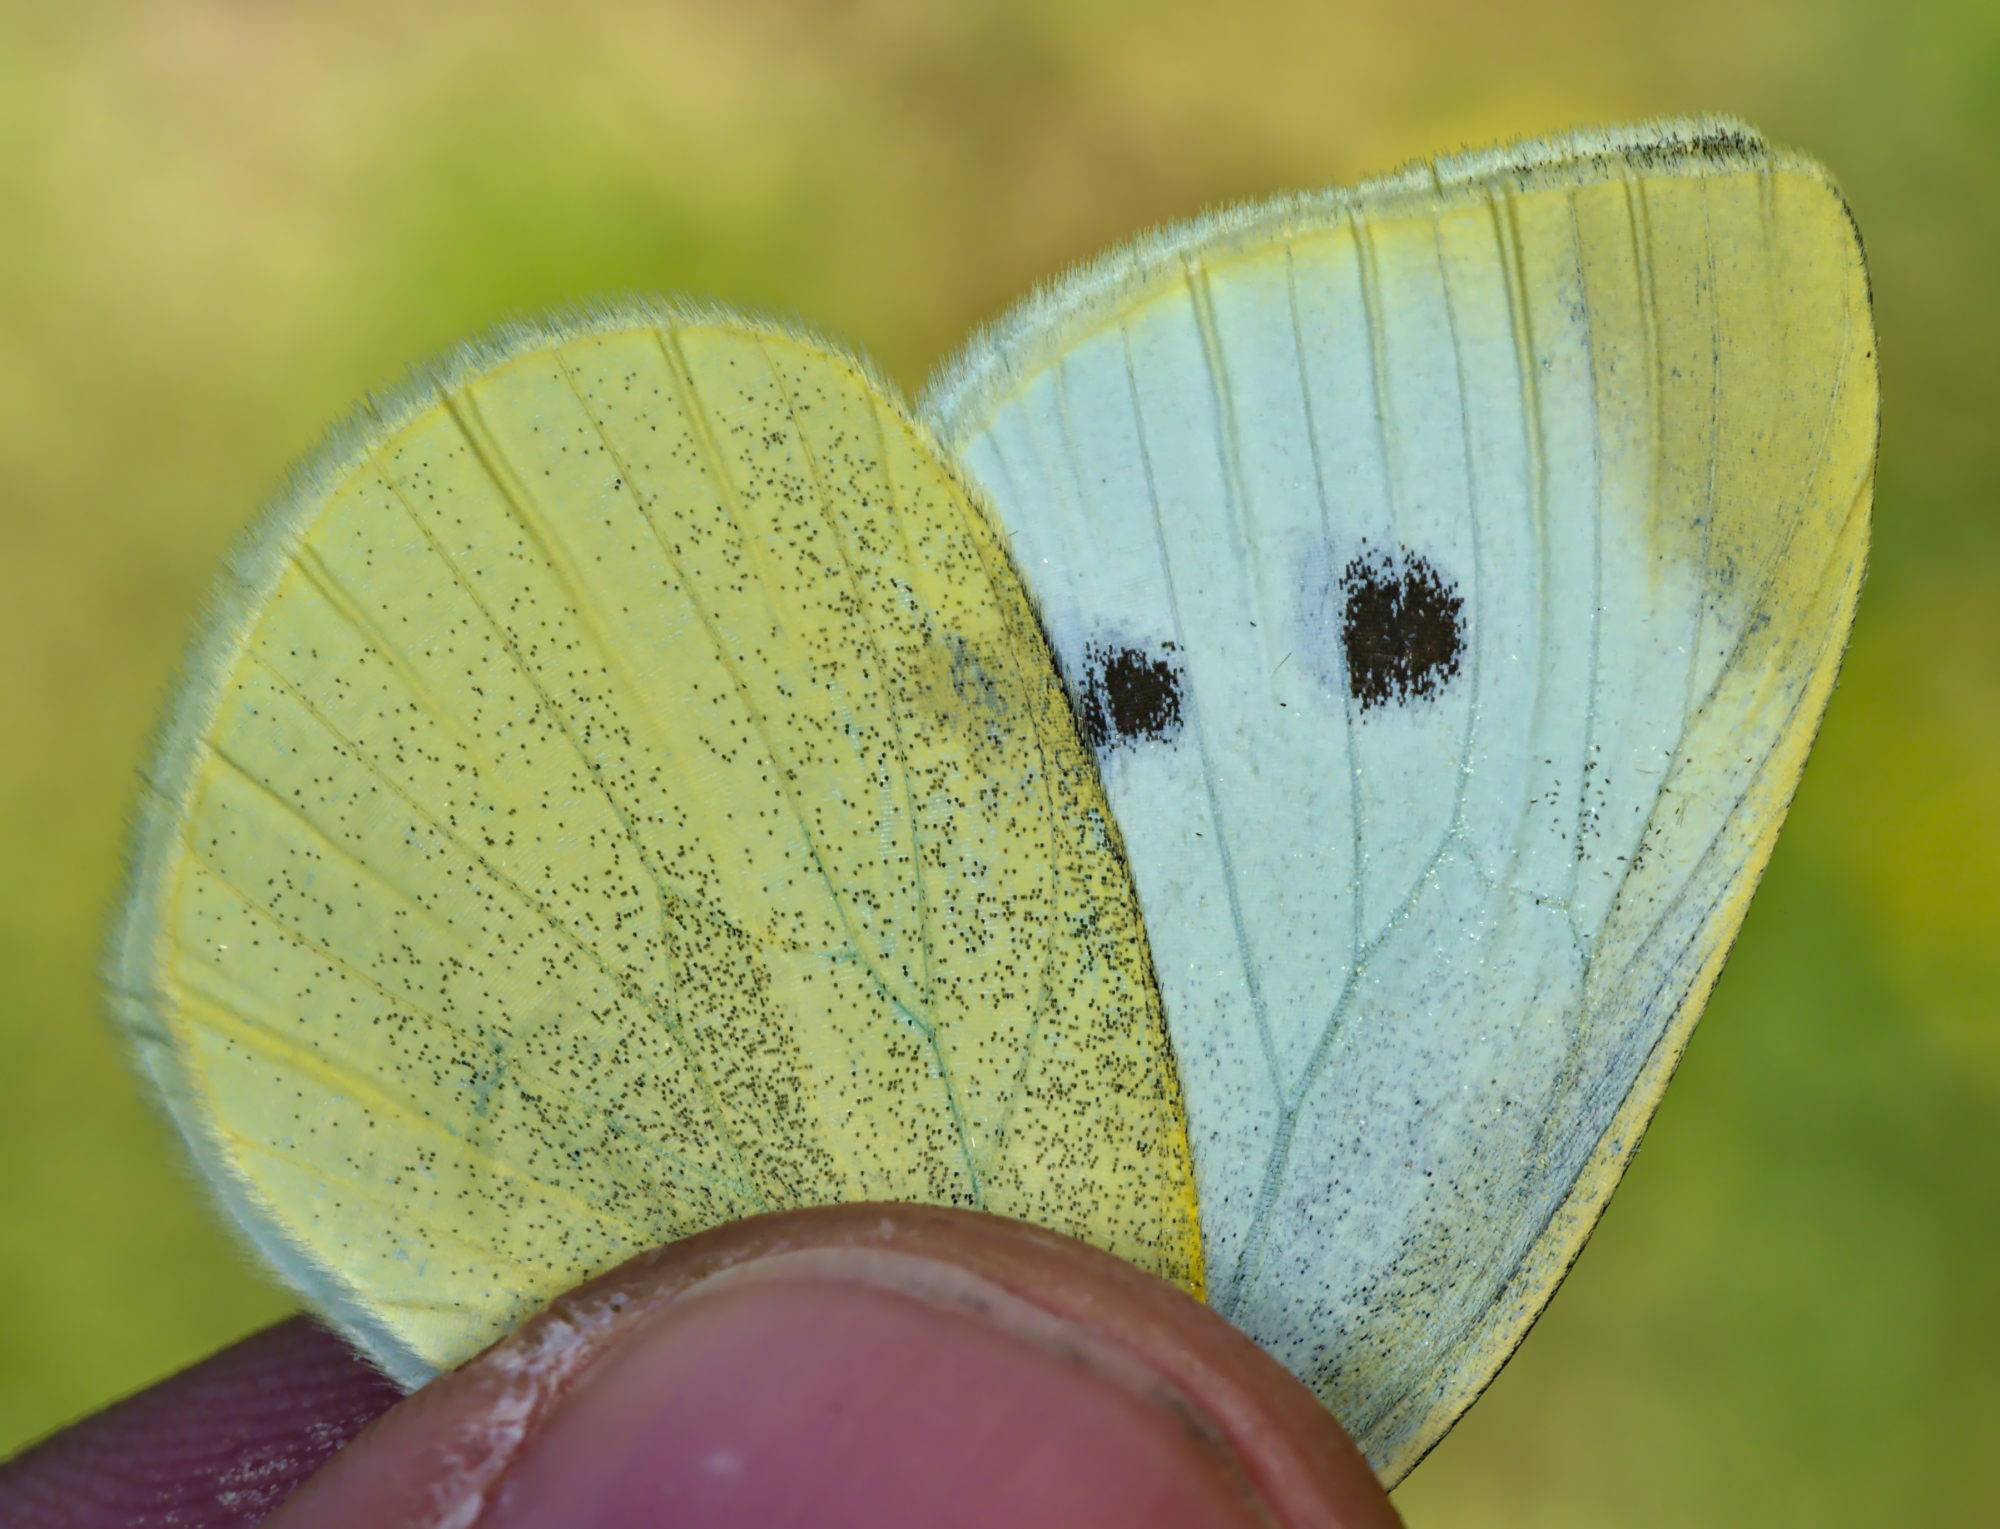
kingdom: Animalia
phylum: Arthropoda
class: Insecta
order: Lepidoptera
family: Pieridae
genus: Pieris
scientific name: Pieris rapae
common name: Small white
